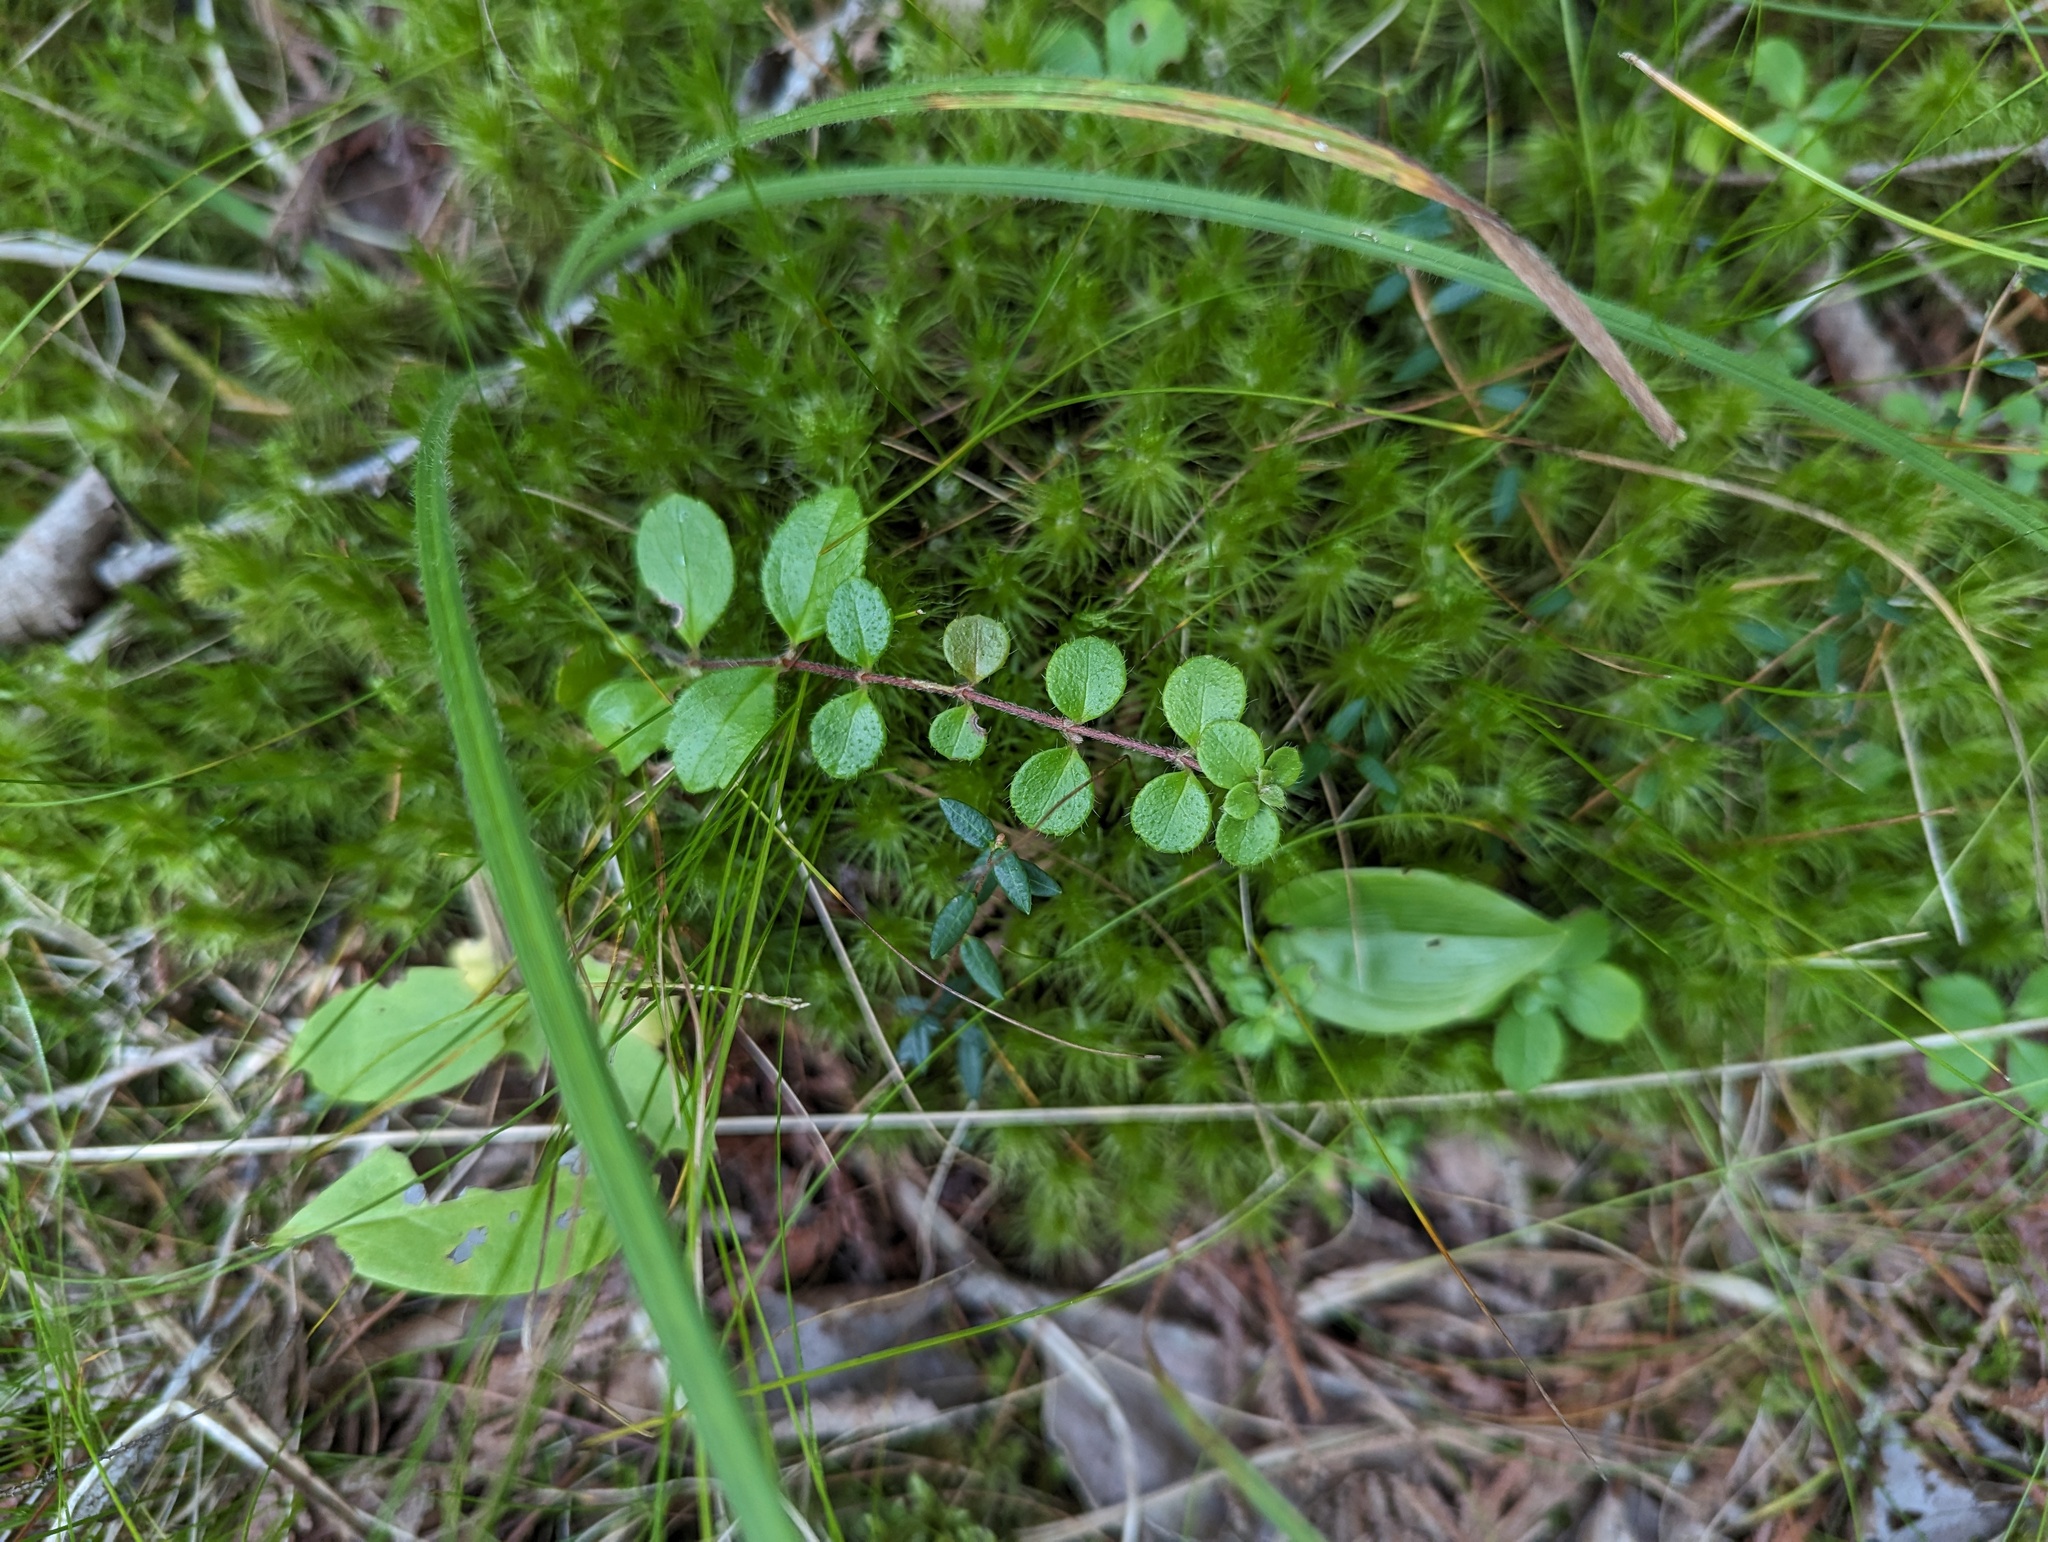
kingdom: Plantae
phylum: Tracheophyta
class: Magnoliopsida
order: Dipsacales
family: Caprifoliaceae
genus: Linnaea
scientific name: Linnaea borealis
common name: Twinflower
